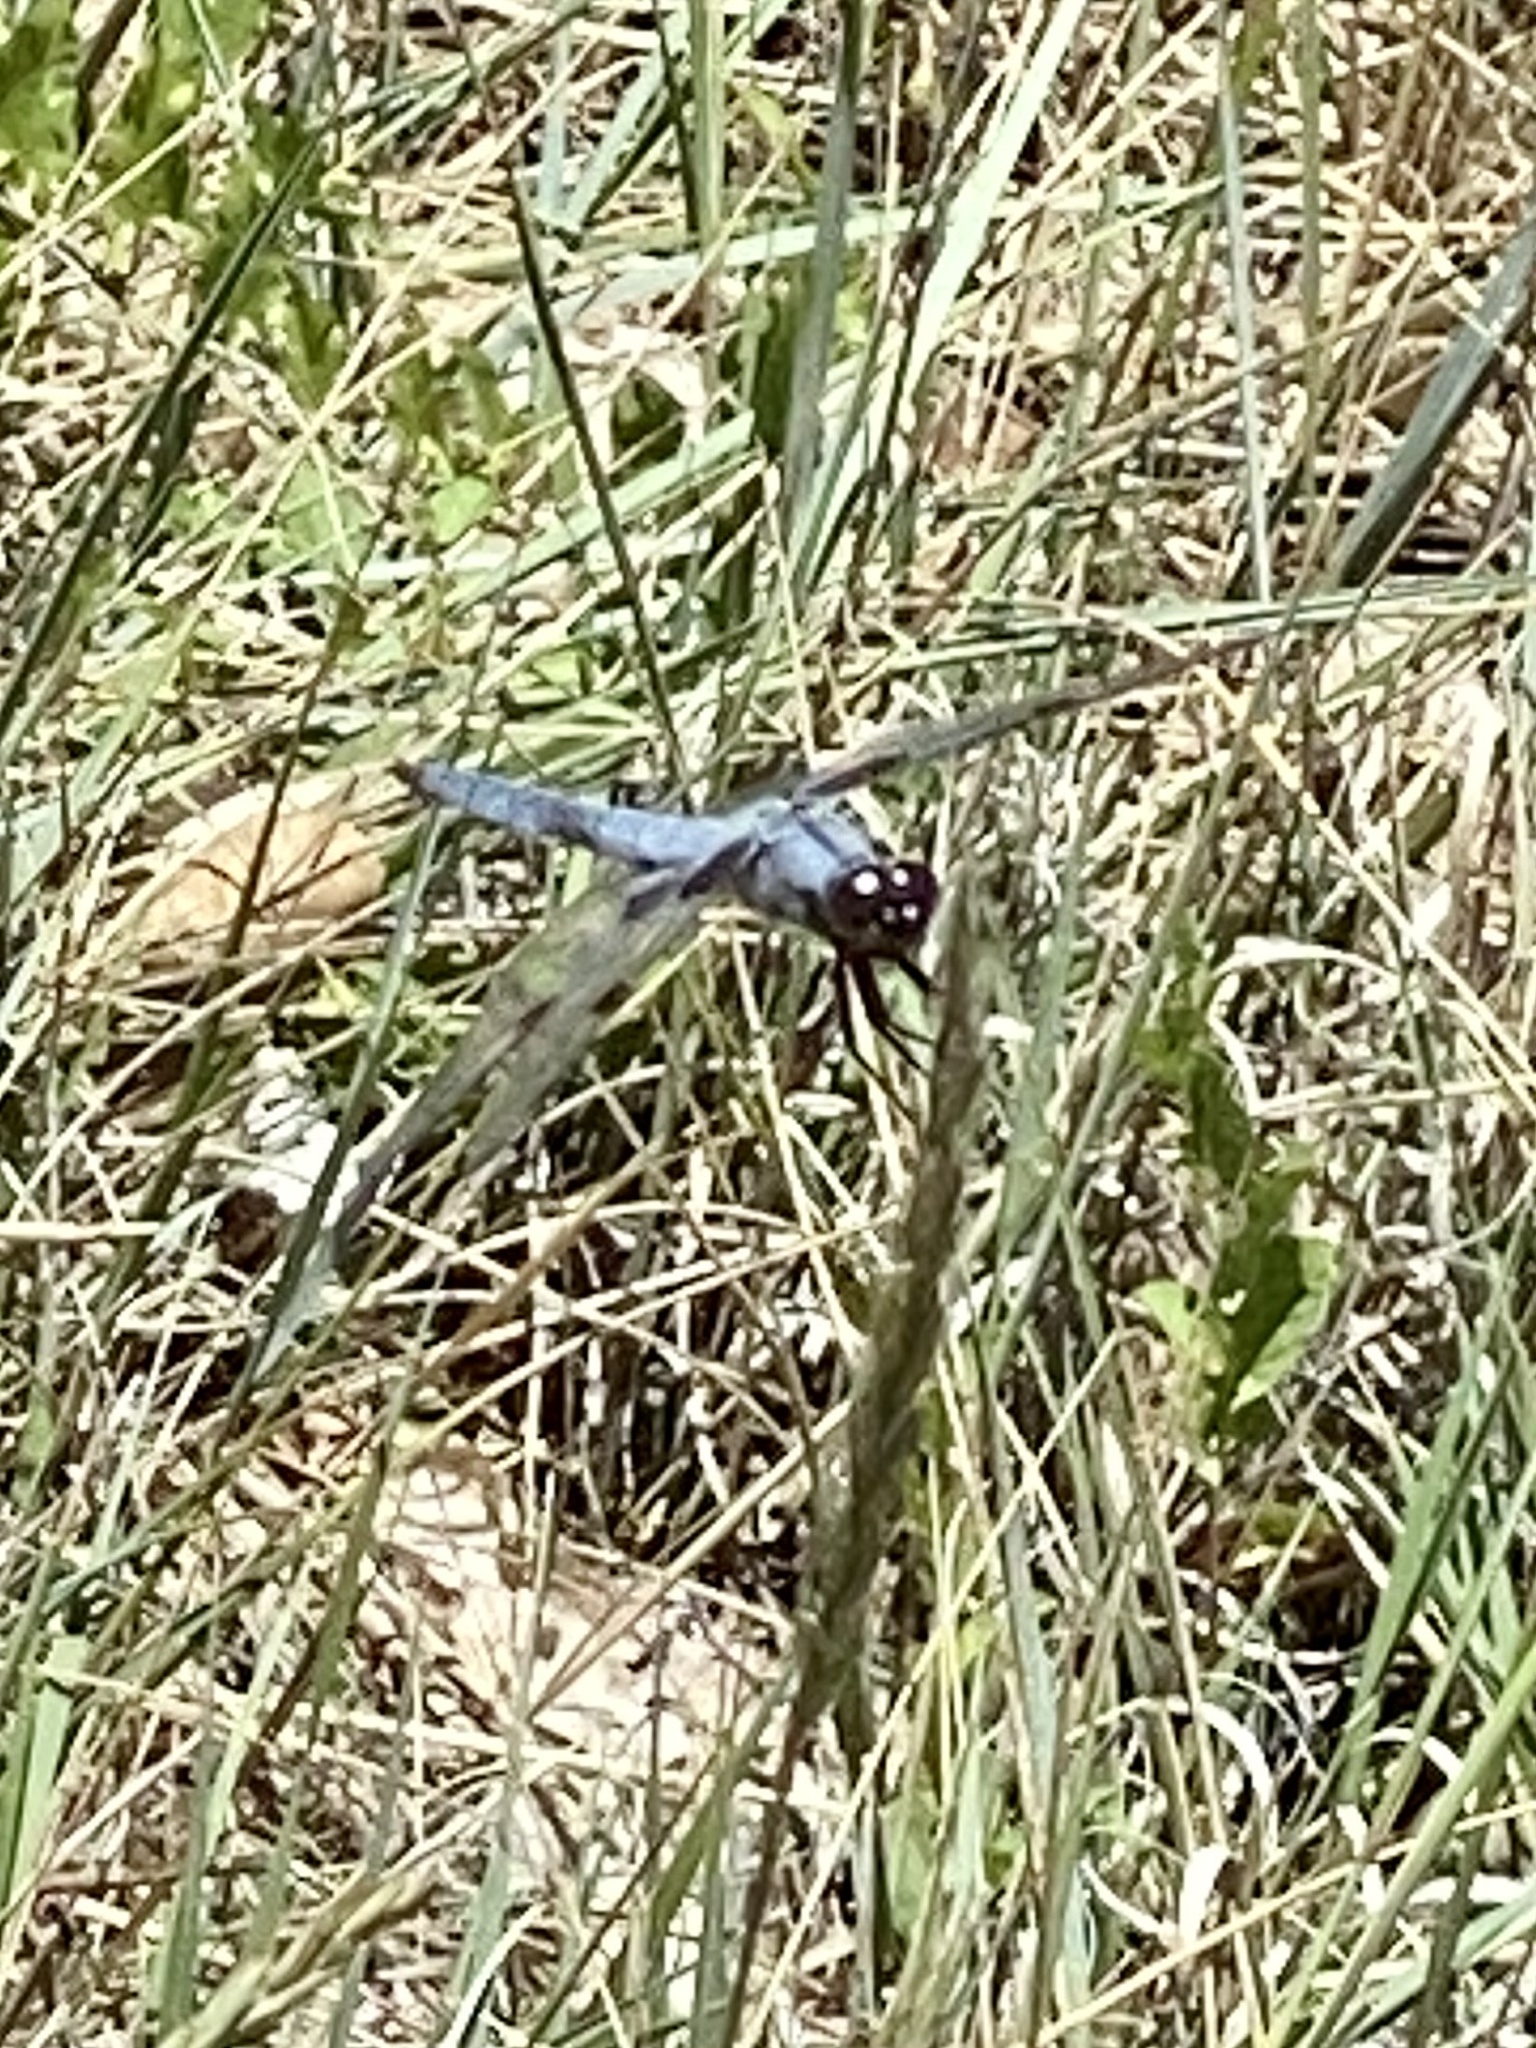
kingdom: Animalia
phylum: Arthropoda
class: Insecta
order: Odonata
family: Libellulidae
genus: Libellula
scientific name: Libellula nodisticta
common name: Hoary skimmer
